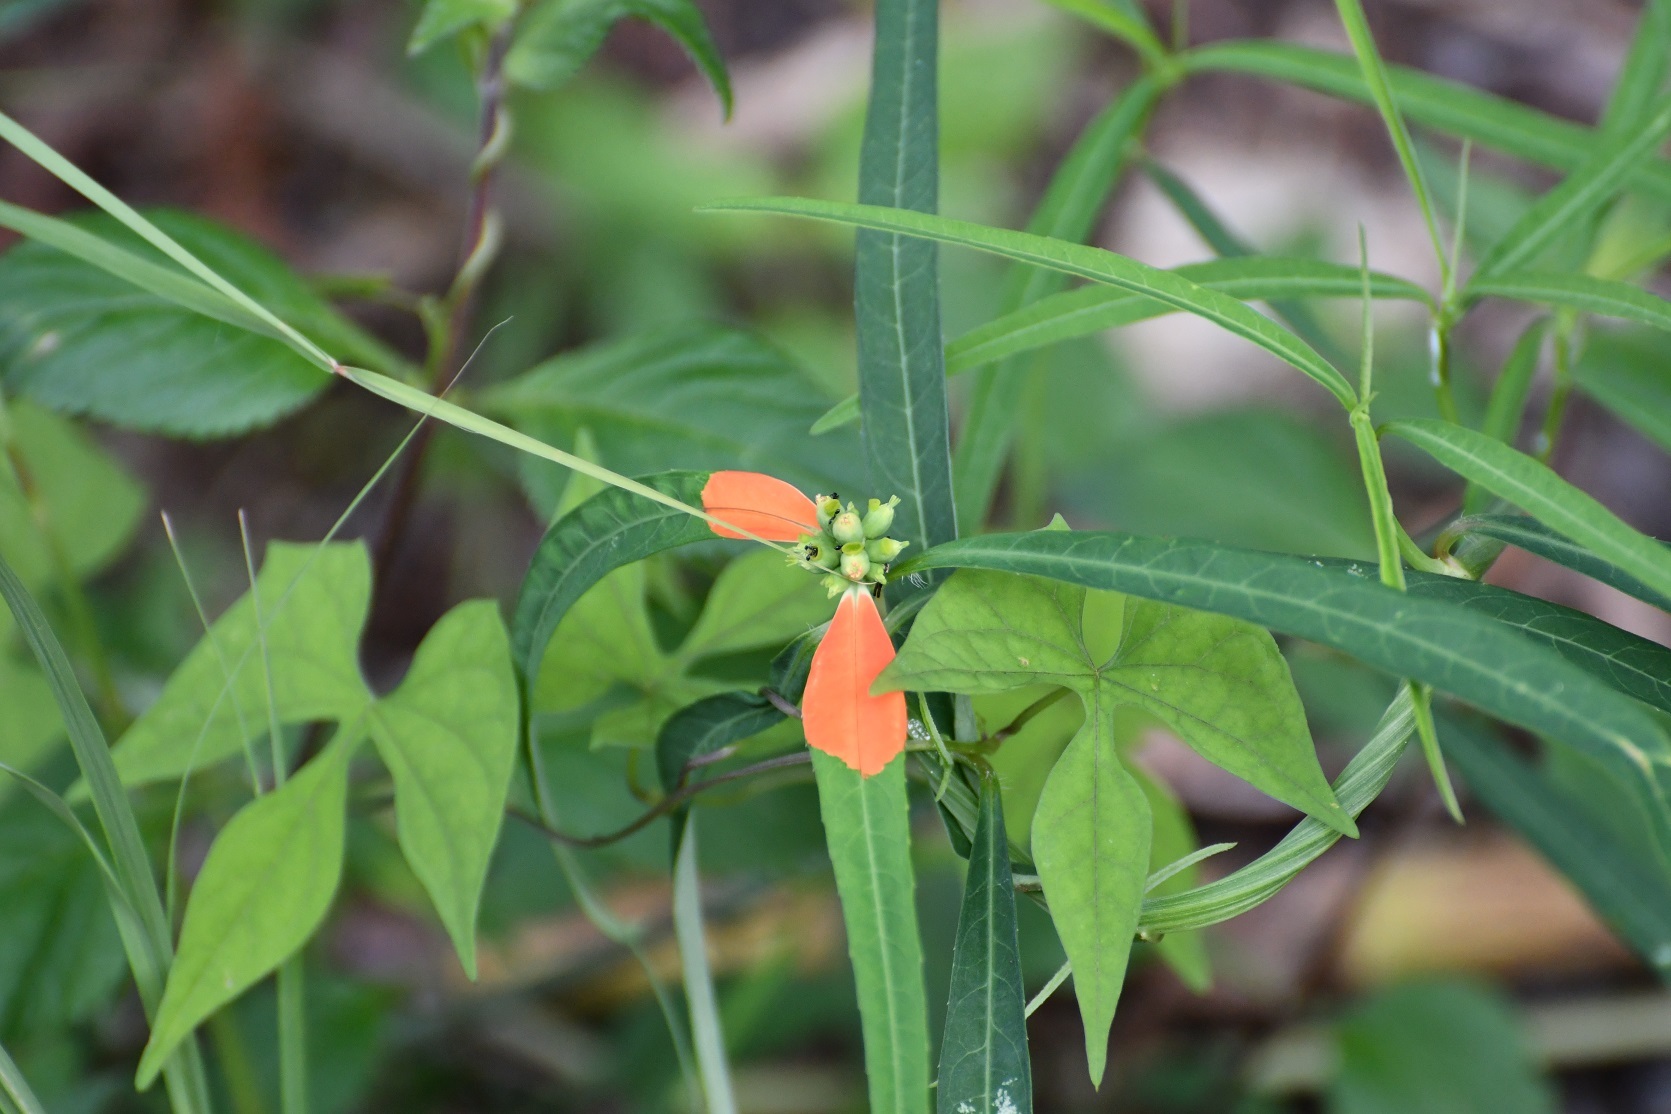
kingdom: Plantae
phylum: Tracheophyta
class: Magnoliopsida
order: Malpighiales
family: Euphorbiaceae
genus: Euphorbia
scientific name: Euphorbia heterophylla
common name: Mexican fireplant
